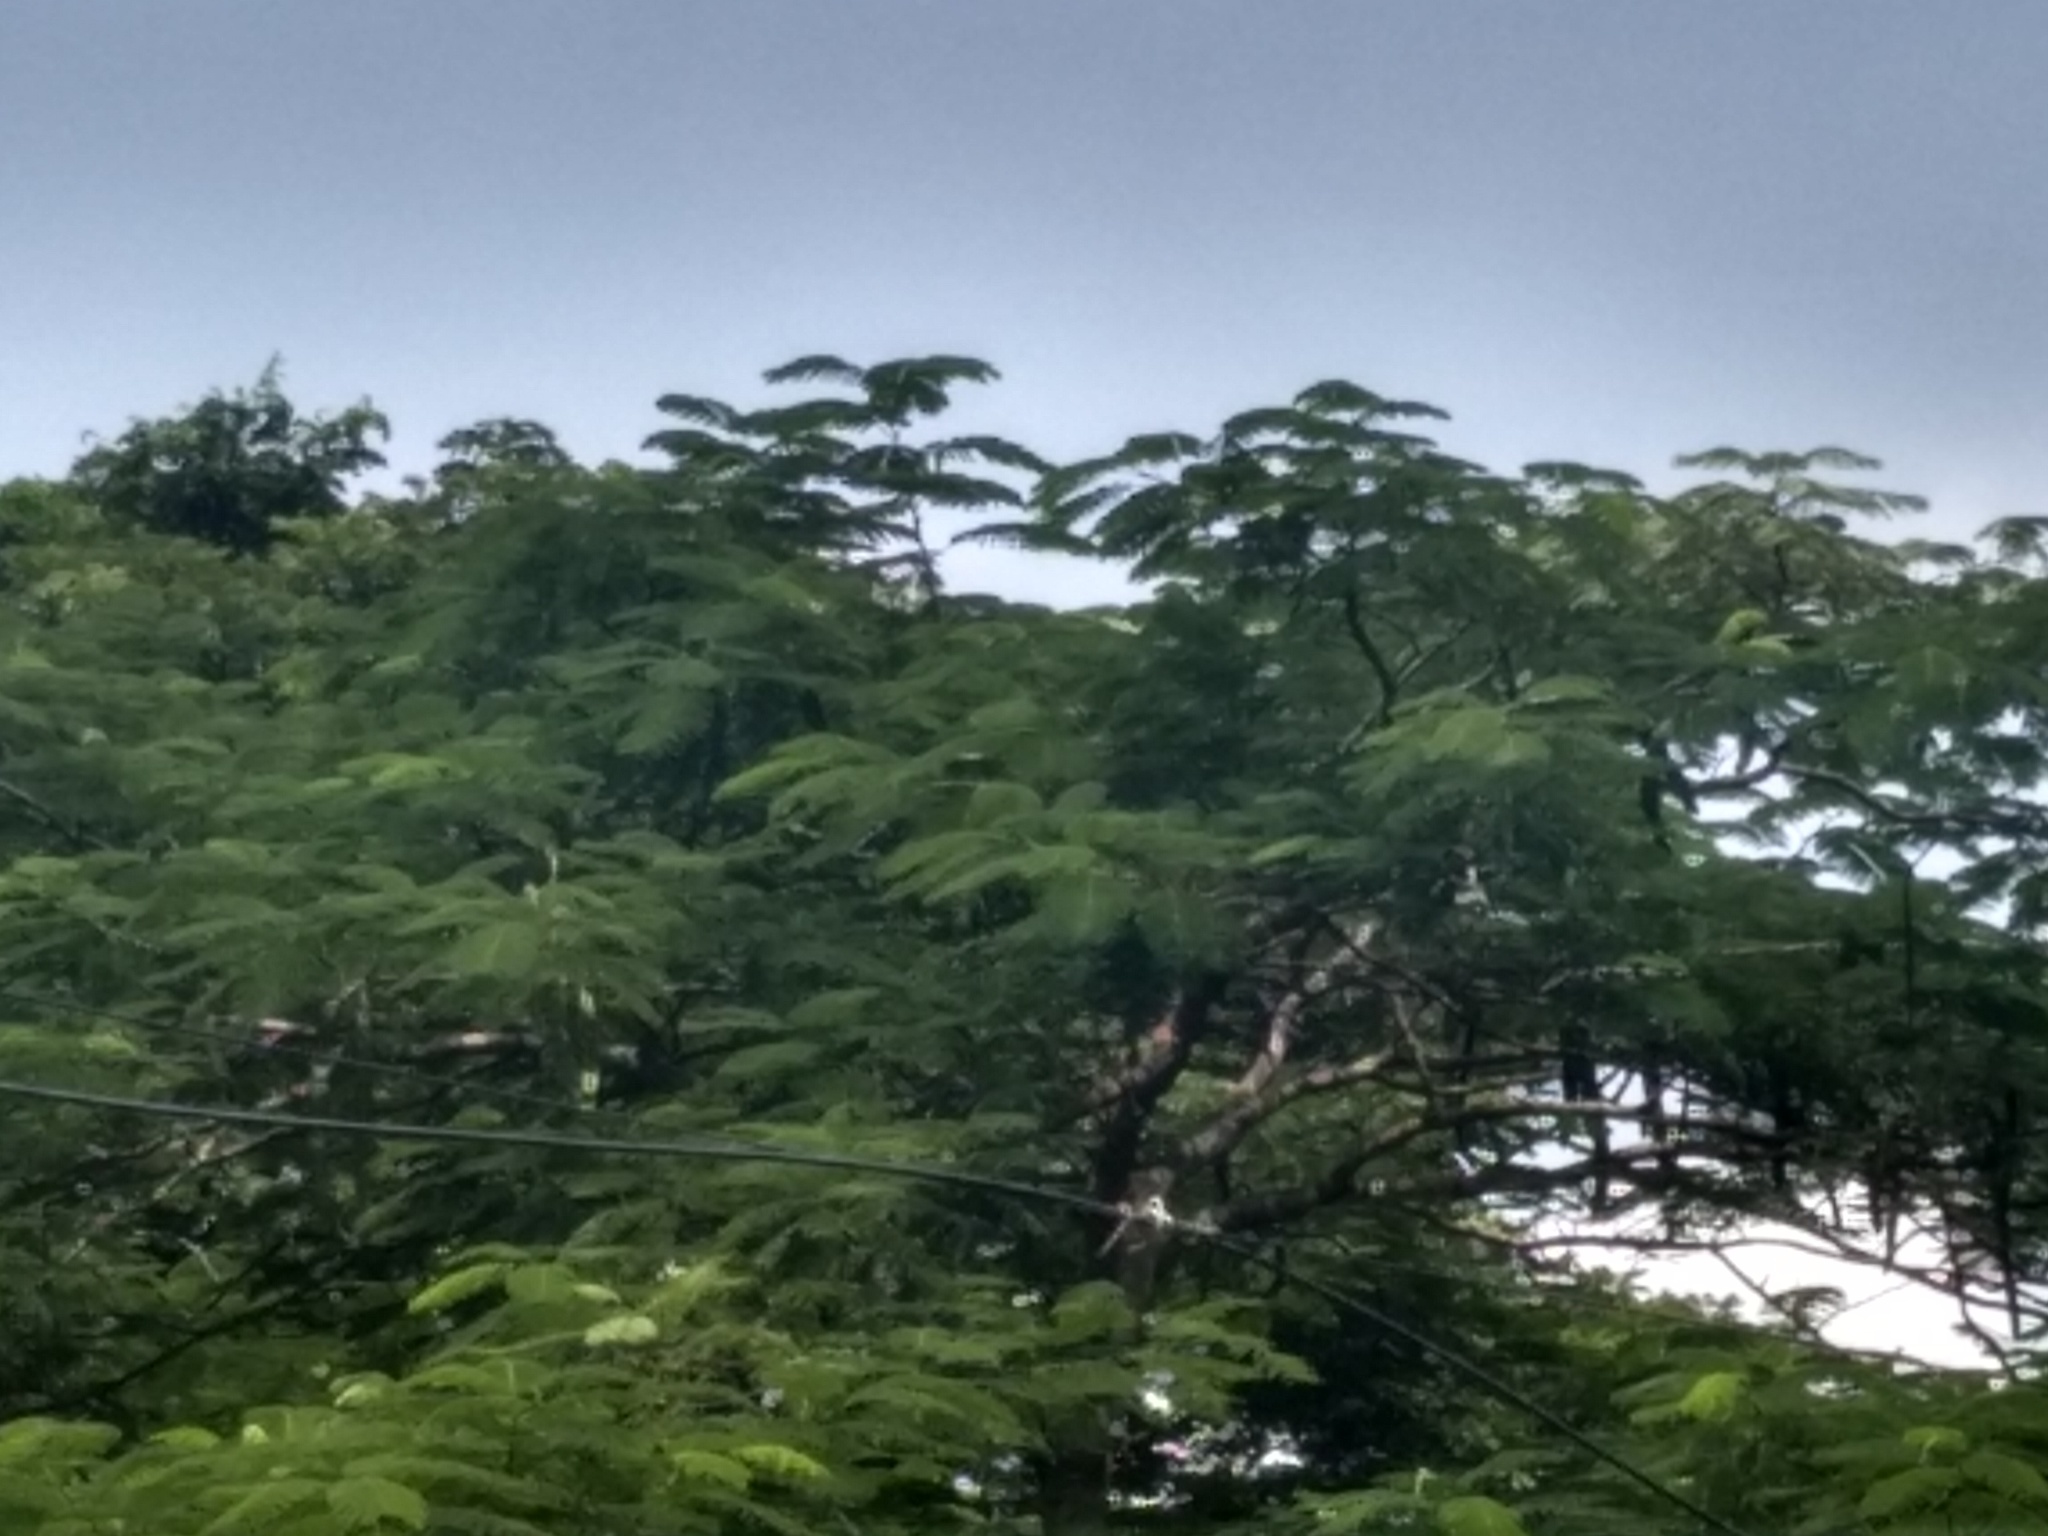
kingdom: Plantae
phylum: Tracheophyta
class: Magnoliopsida
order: Fabales
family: Fabaceae
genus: Delonix
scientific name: Delonix regia
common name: Royal poinciana
